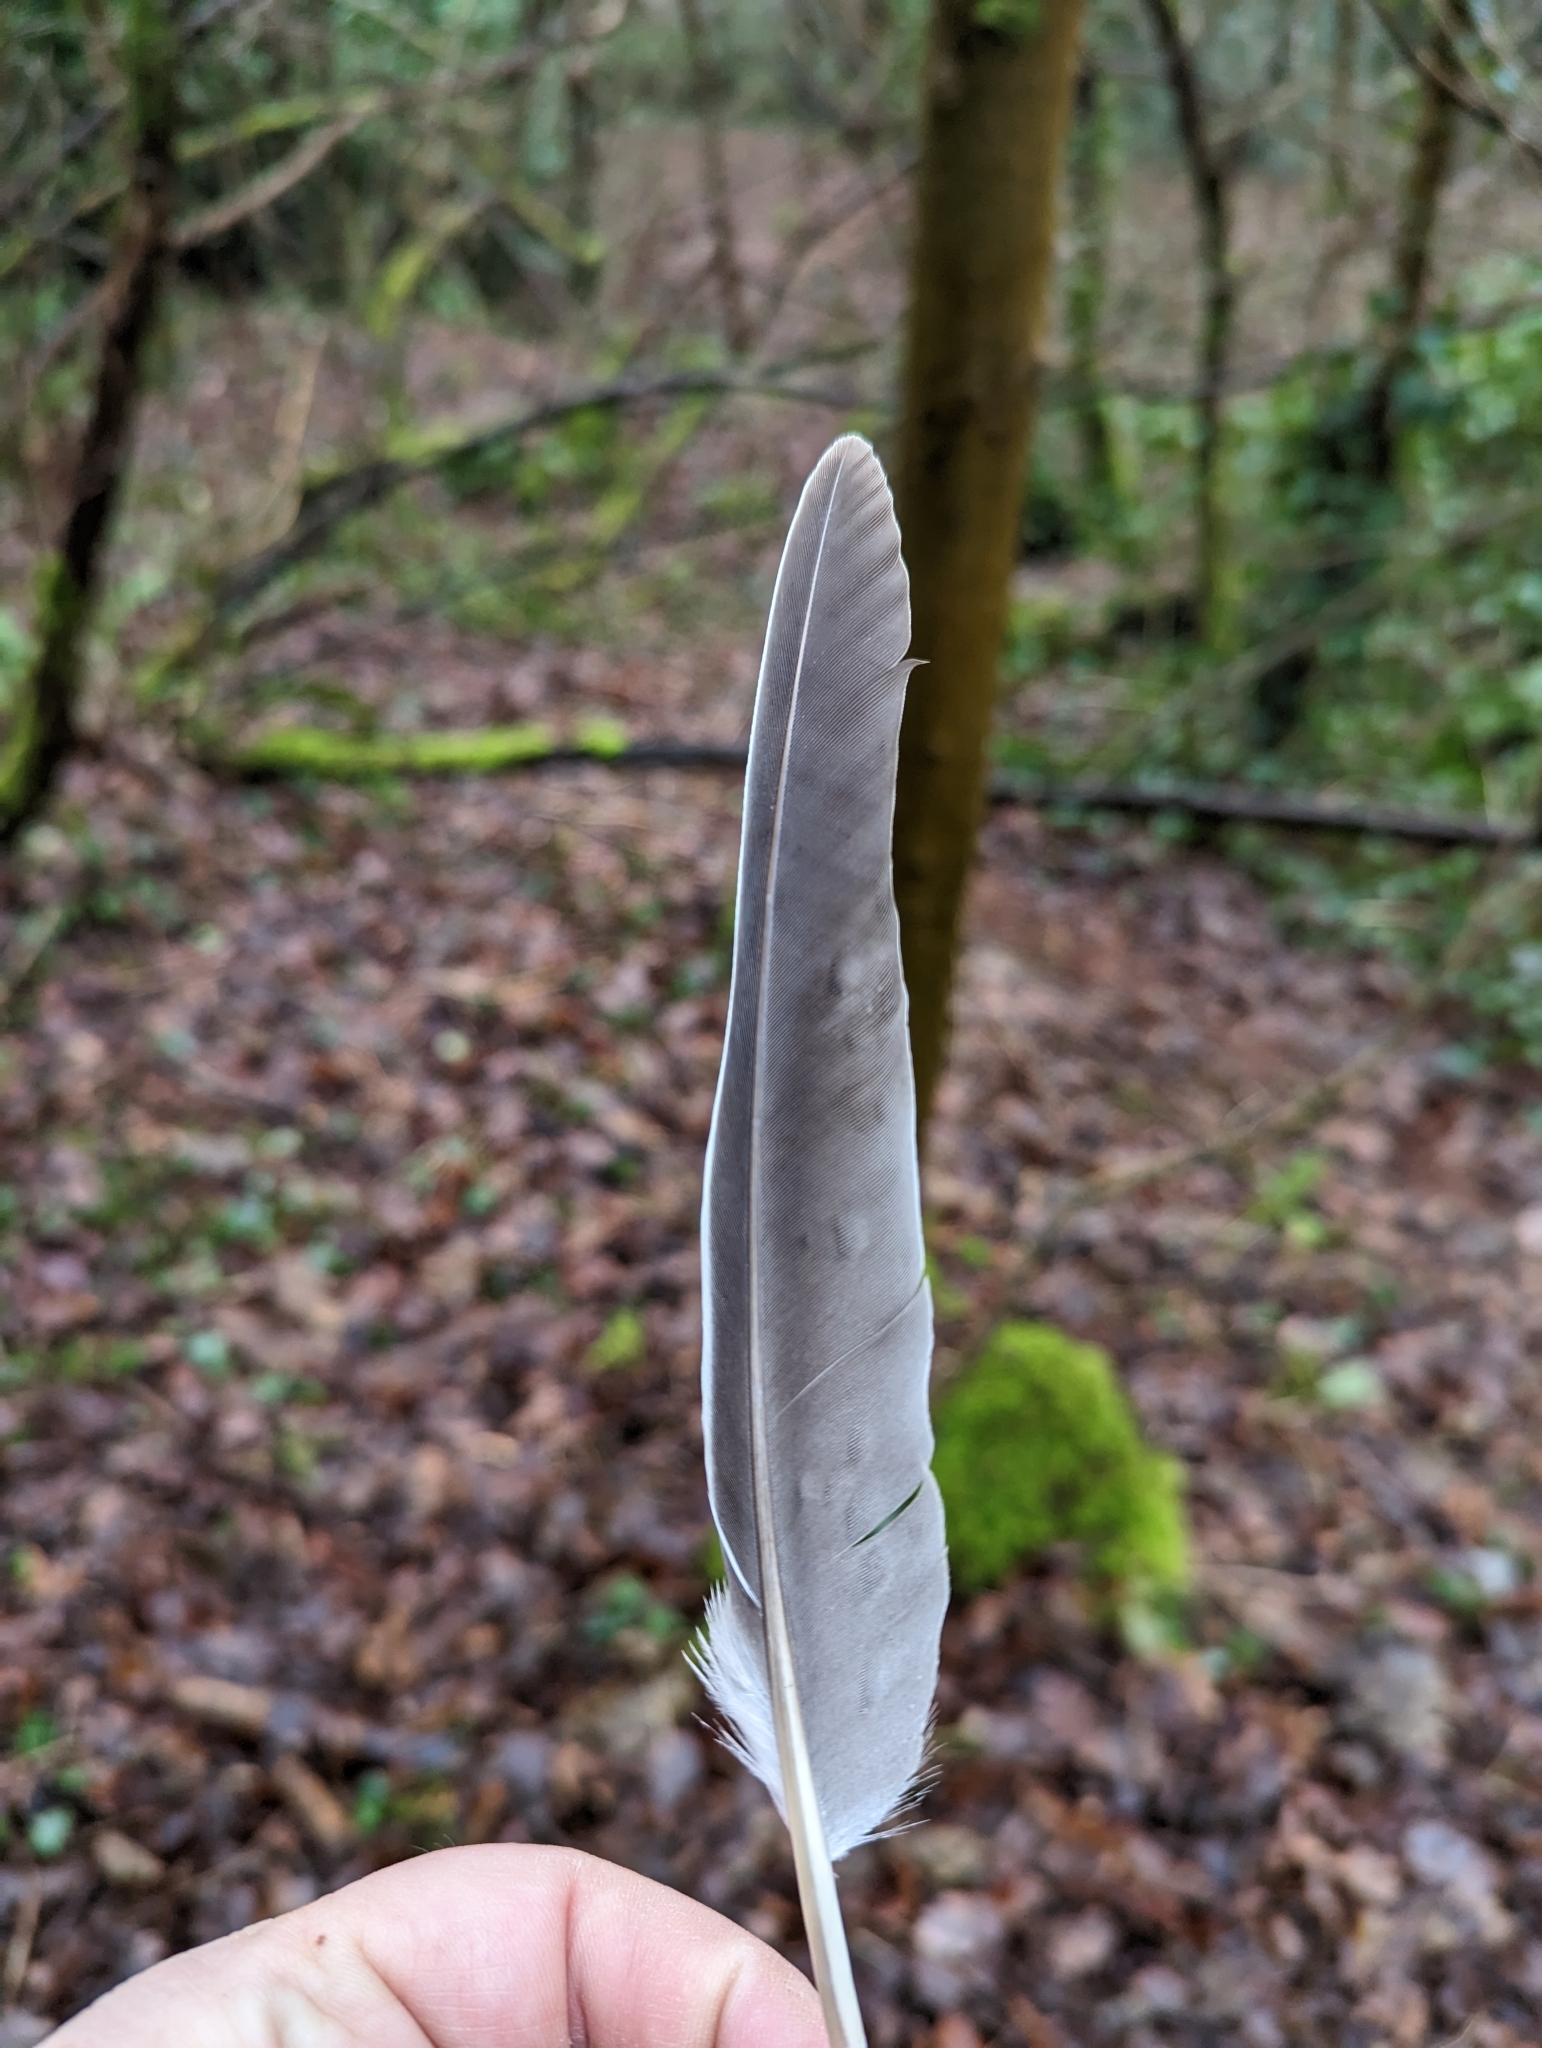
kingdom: Animalia
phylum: Chordata
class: Aves
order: Columbiformes
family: Columbidae
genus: Columba
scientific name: Columba palumbus
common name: Common wood pigeon
